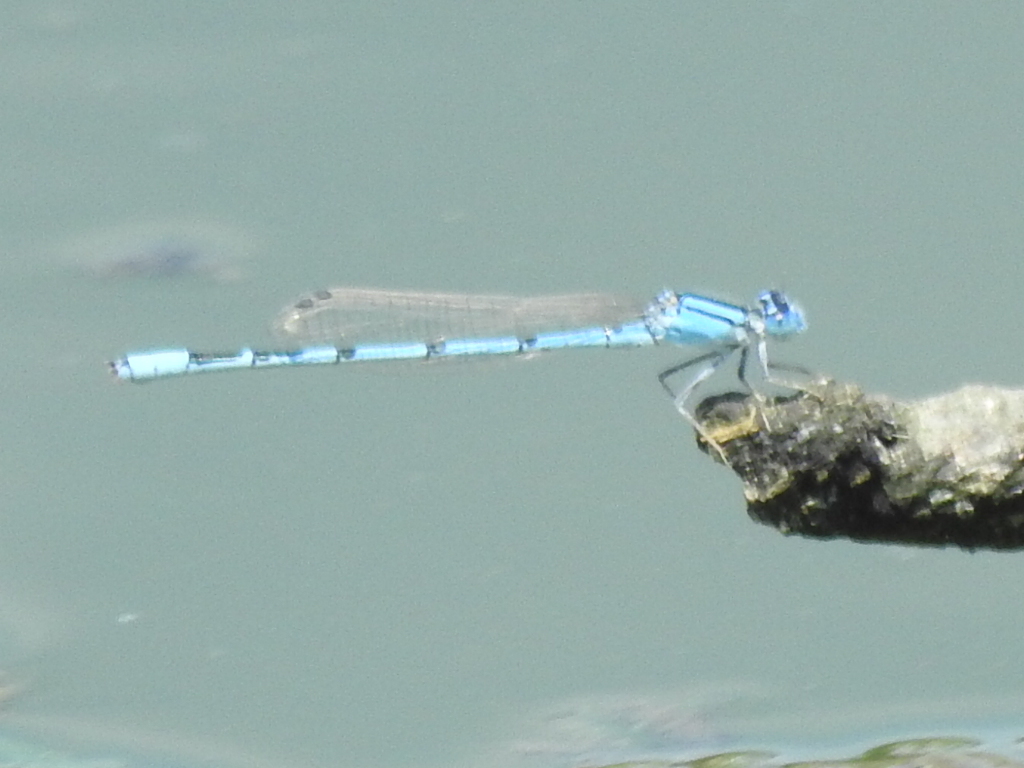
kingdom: Animalia
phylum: Arthropoda
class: Insecta
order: Odonata
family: Coenagrionidae
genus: Enallagma
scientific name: Enallagma civile
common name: Damselfly
